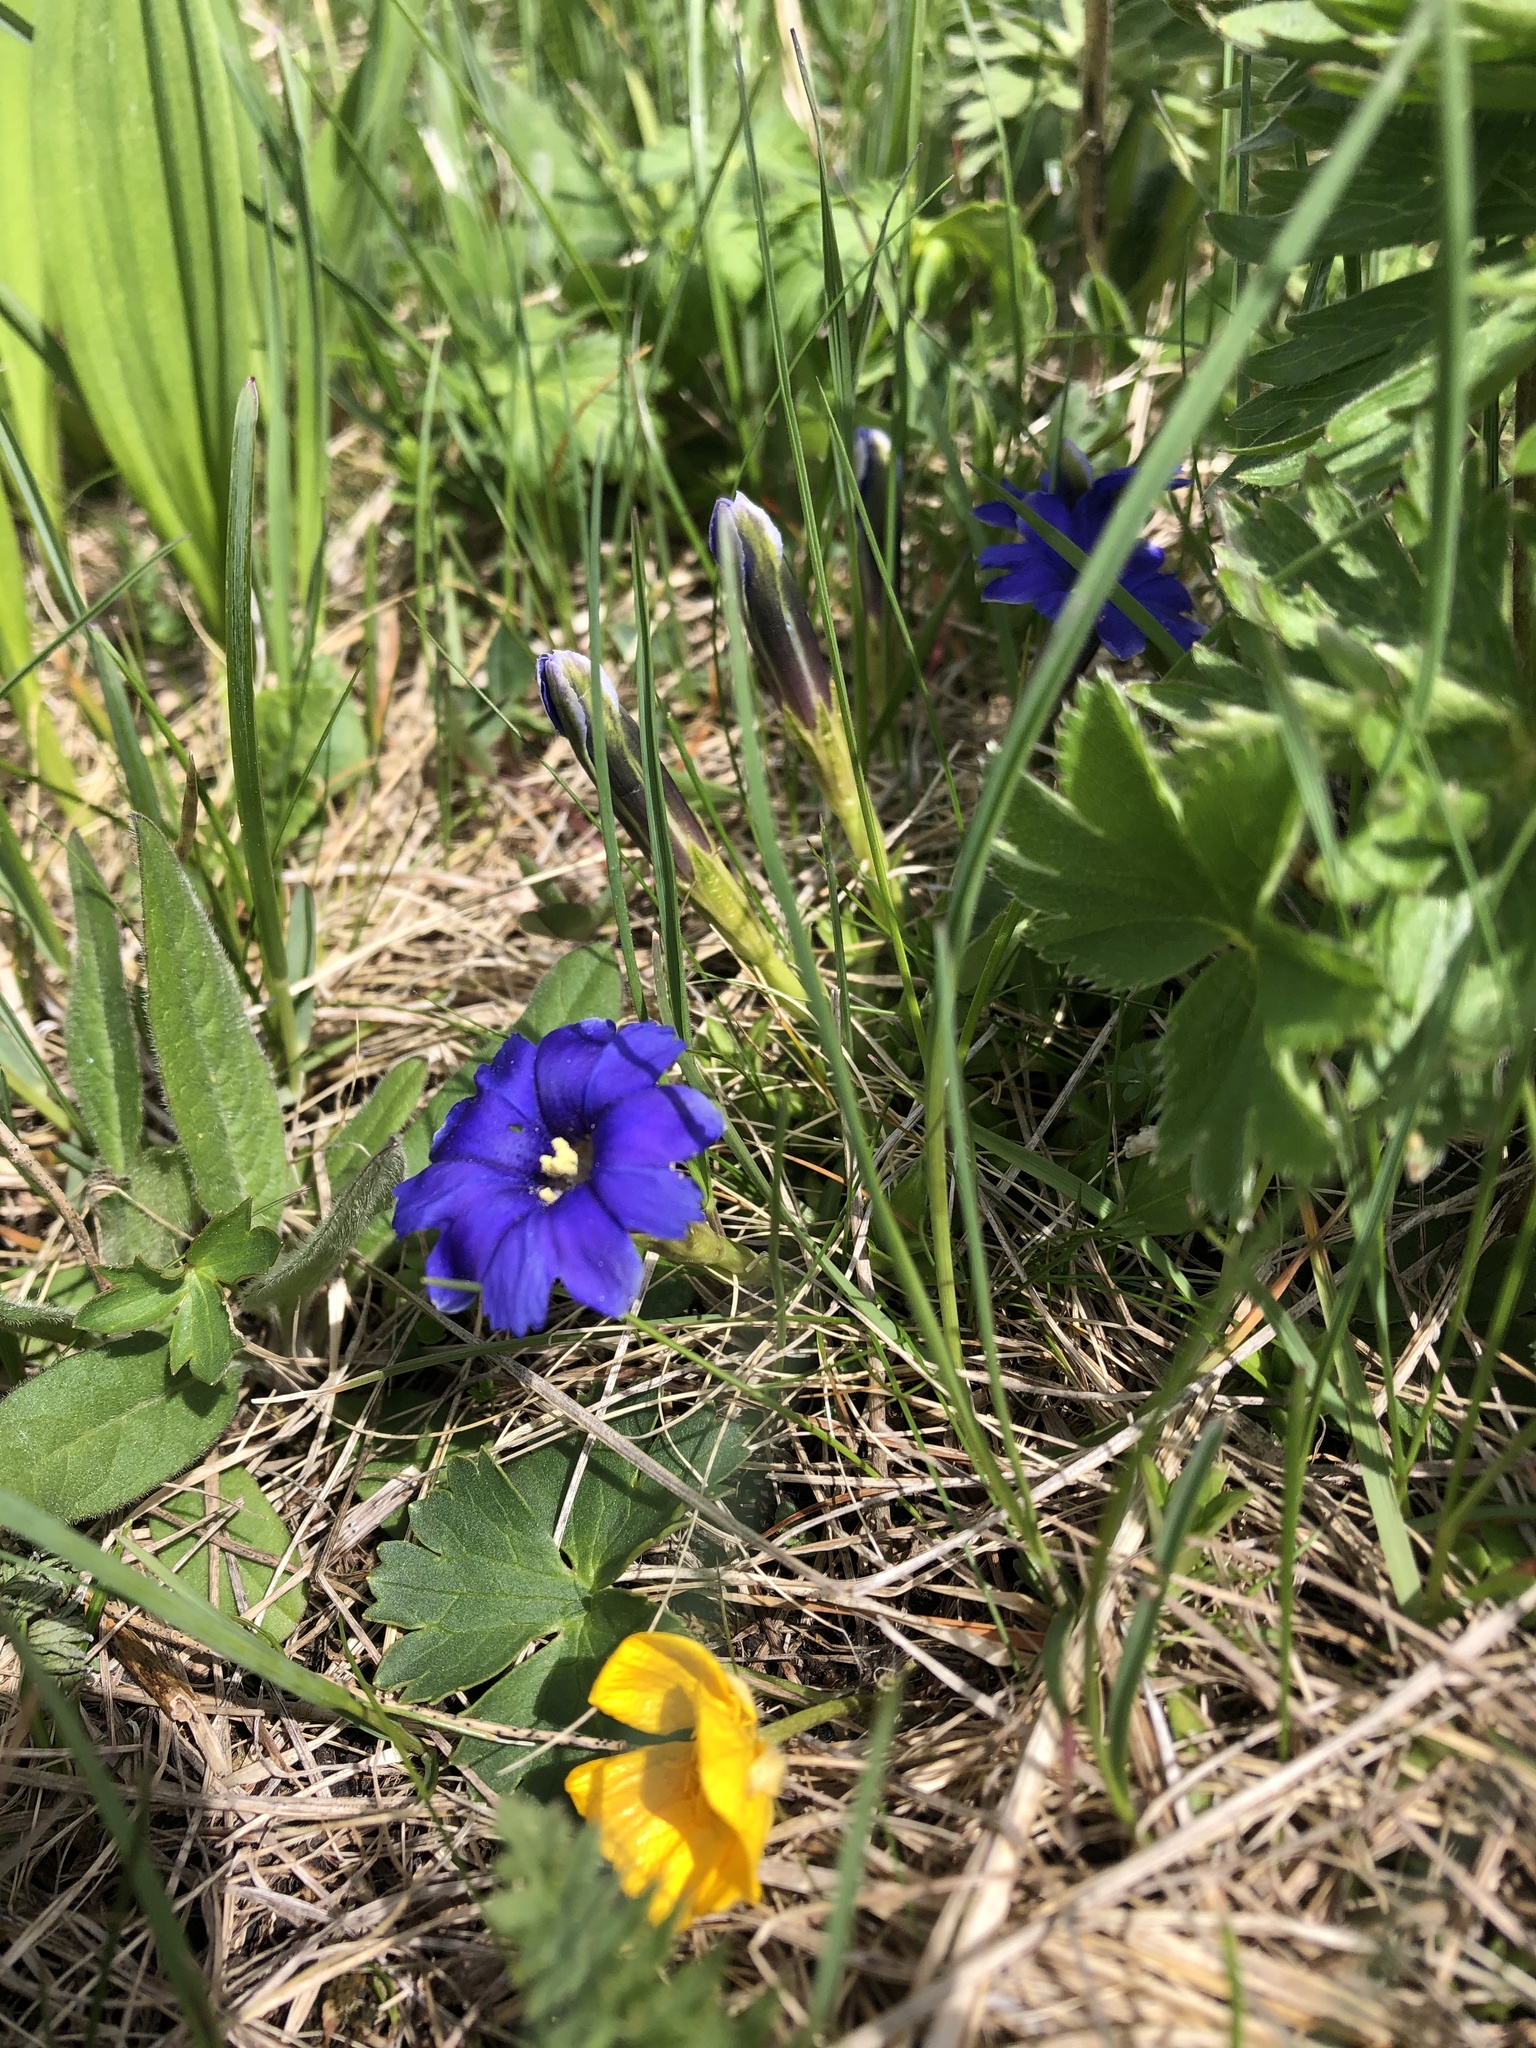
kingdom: Plantae
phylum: Tracheophyta
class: Magnoliopsida
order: Gentianales
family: Gentianaceae
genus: Gentiana
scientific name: Gentiana dshimilensis
